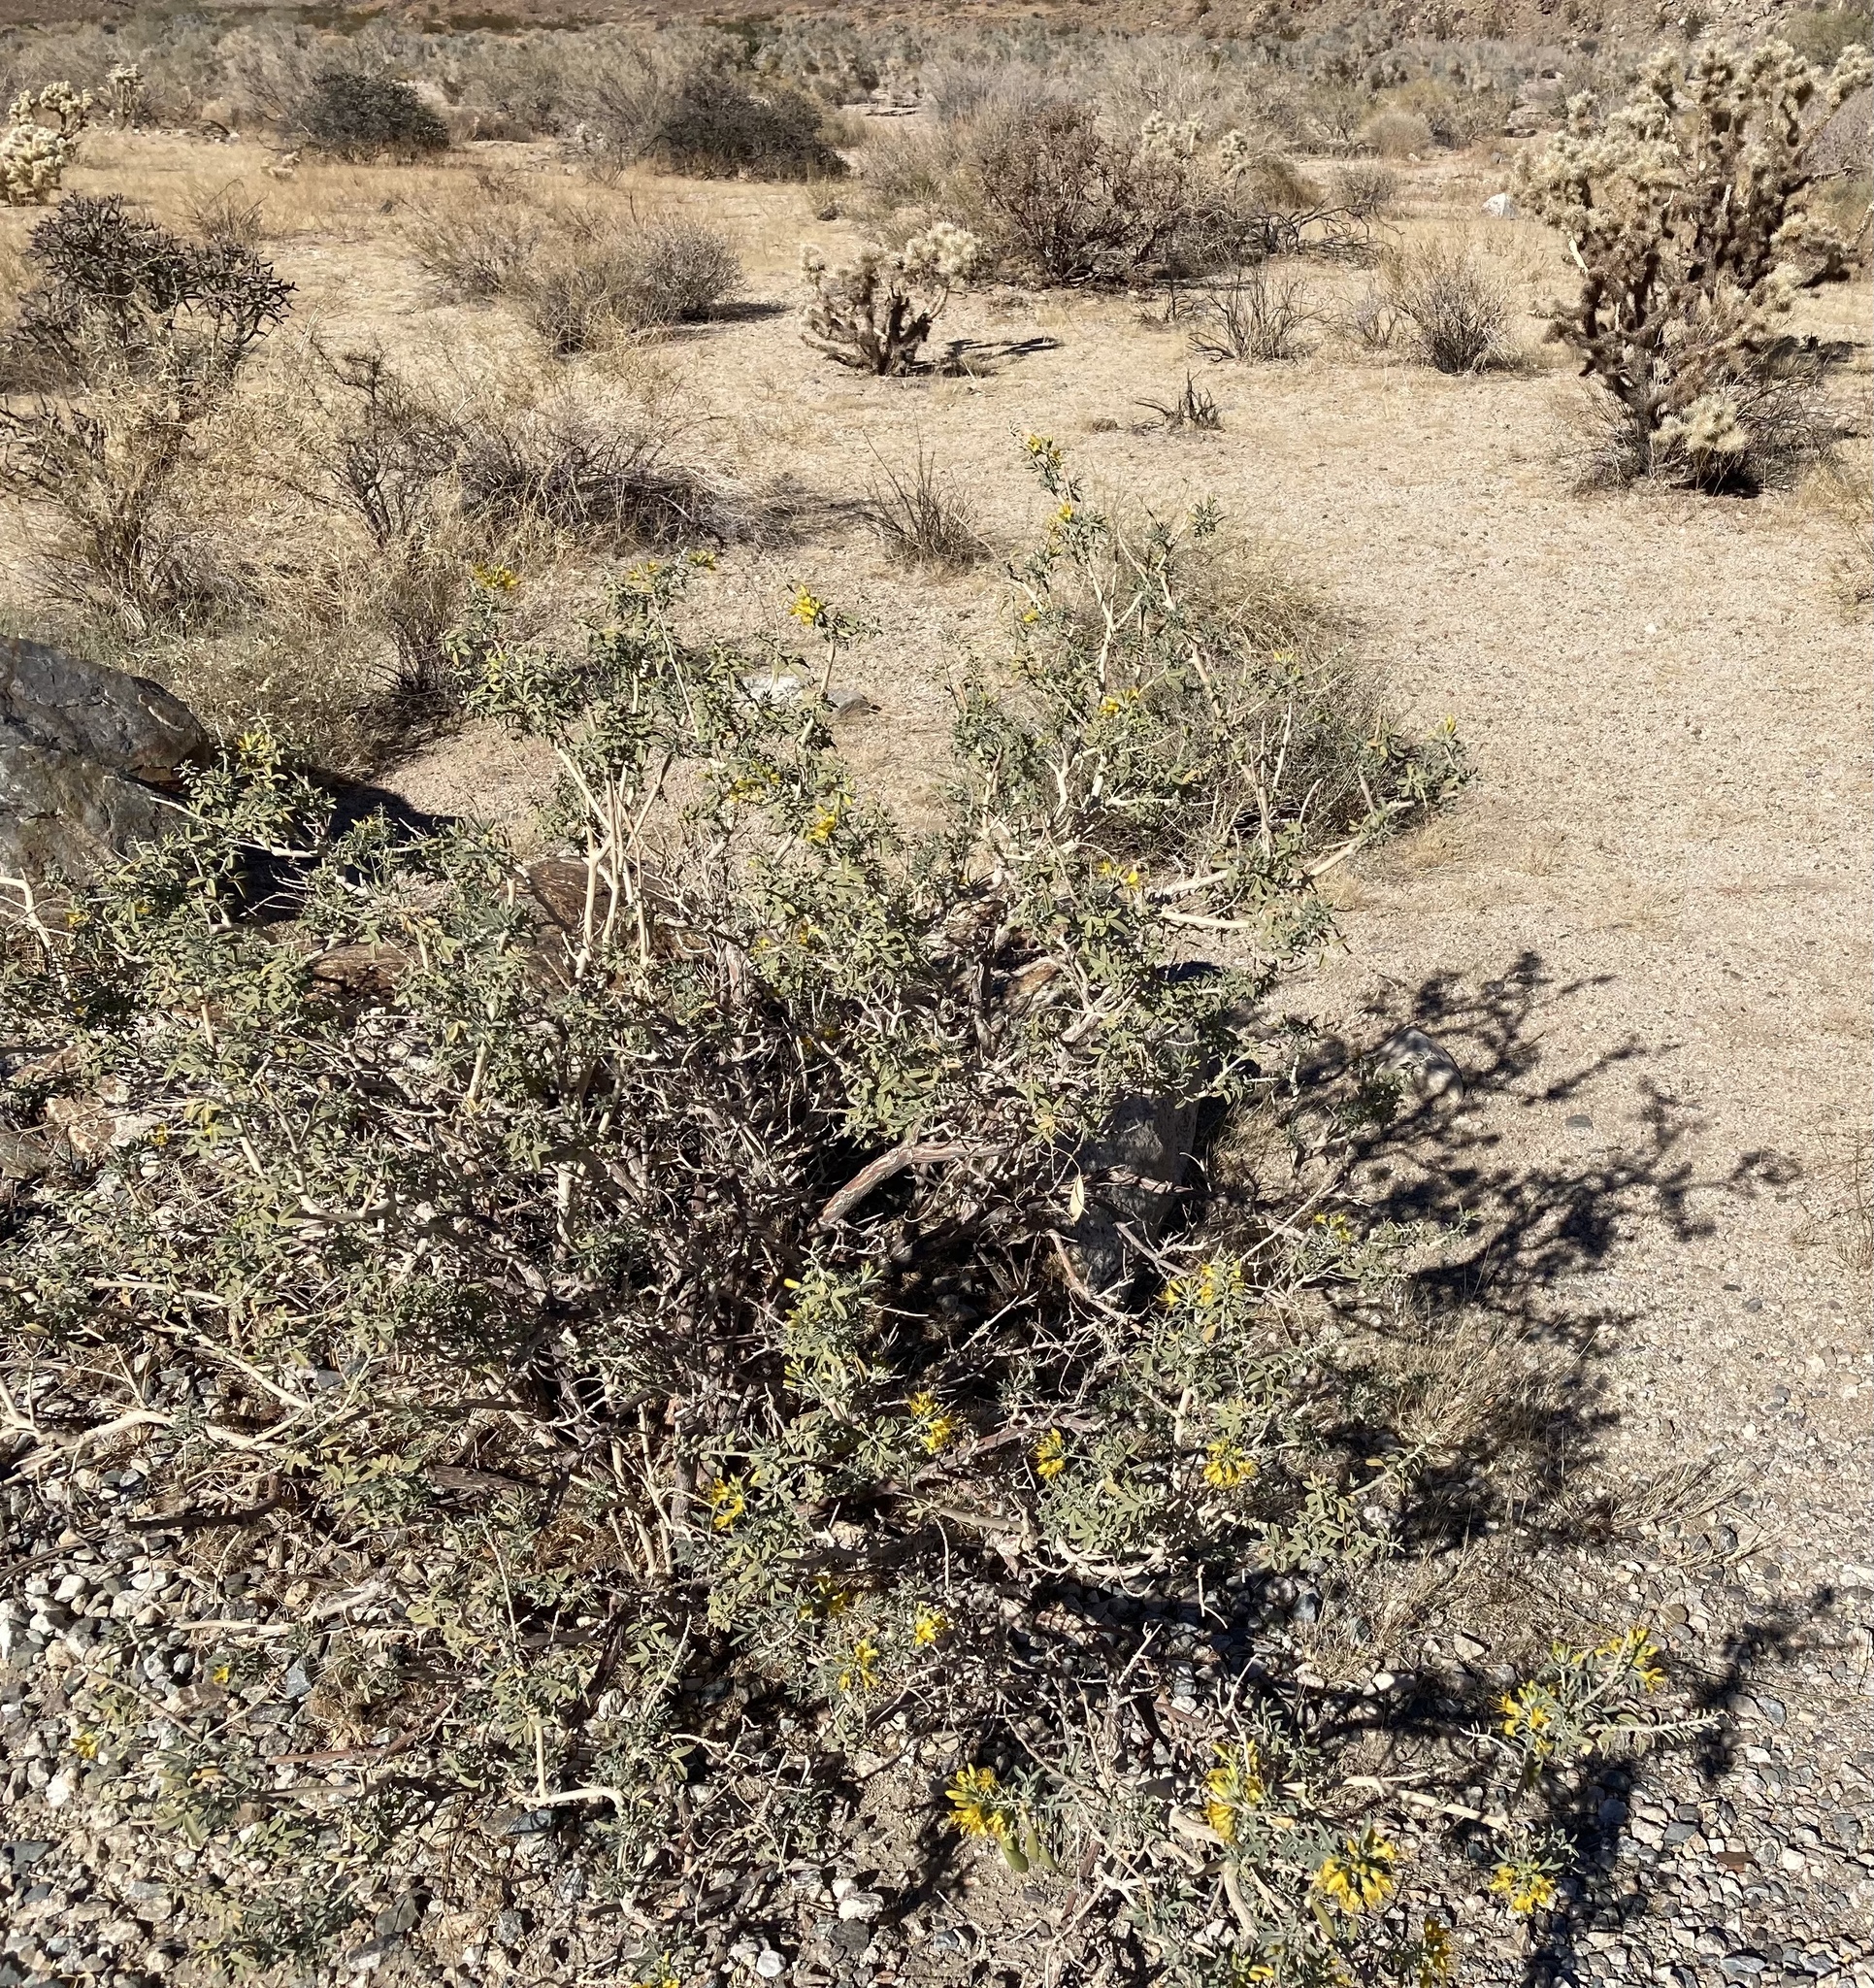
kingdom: Plantae
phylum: Tracheophyta
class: Magnoliopsida
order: Brassicales
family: Cleomaceae
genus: Cleomella
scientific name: Cleomella arborea
